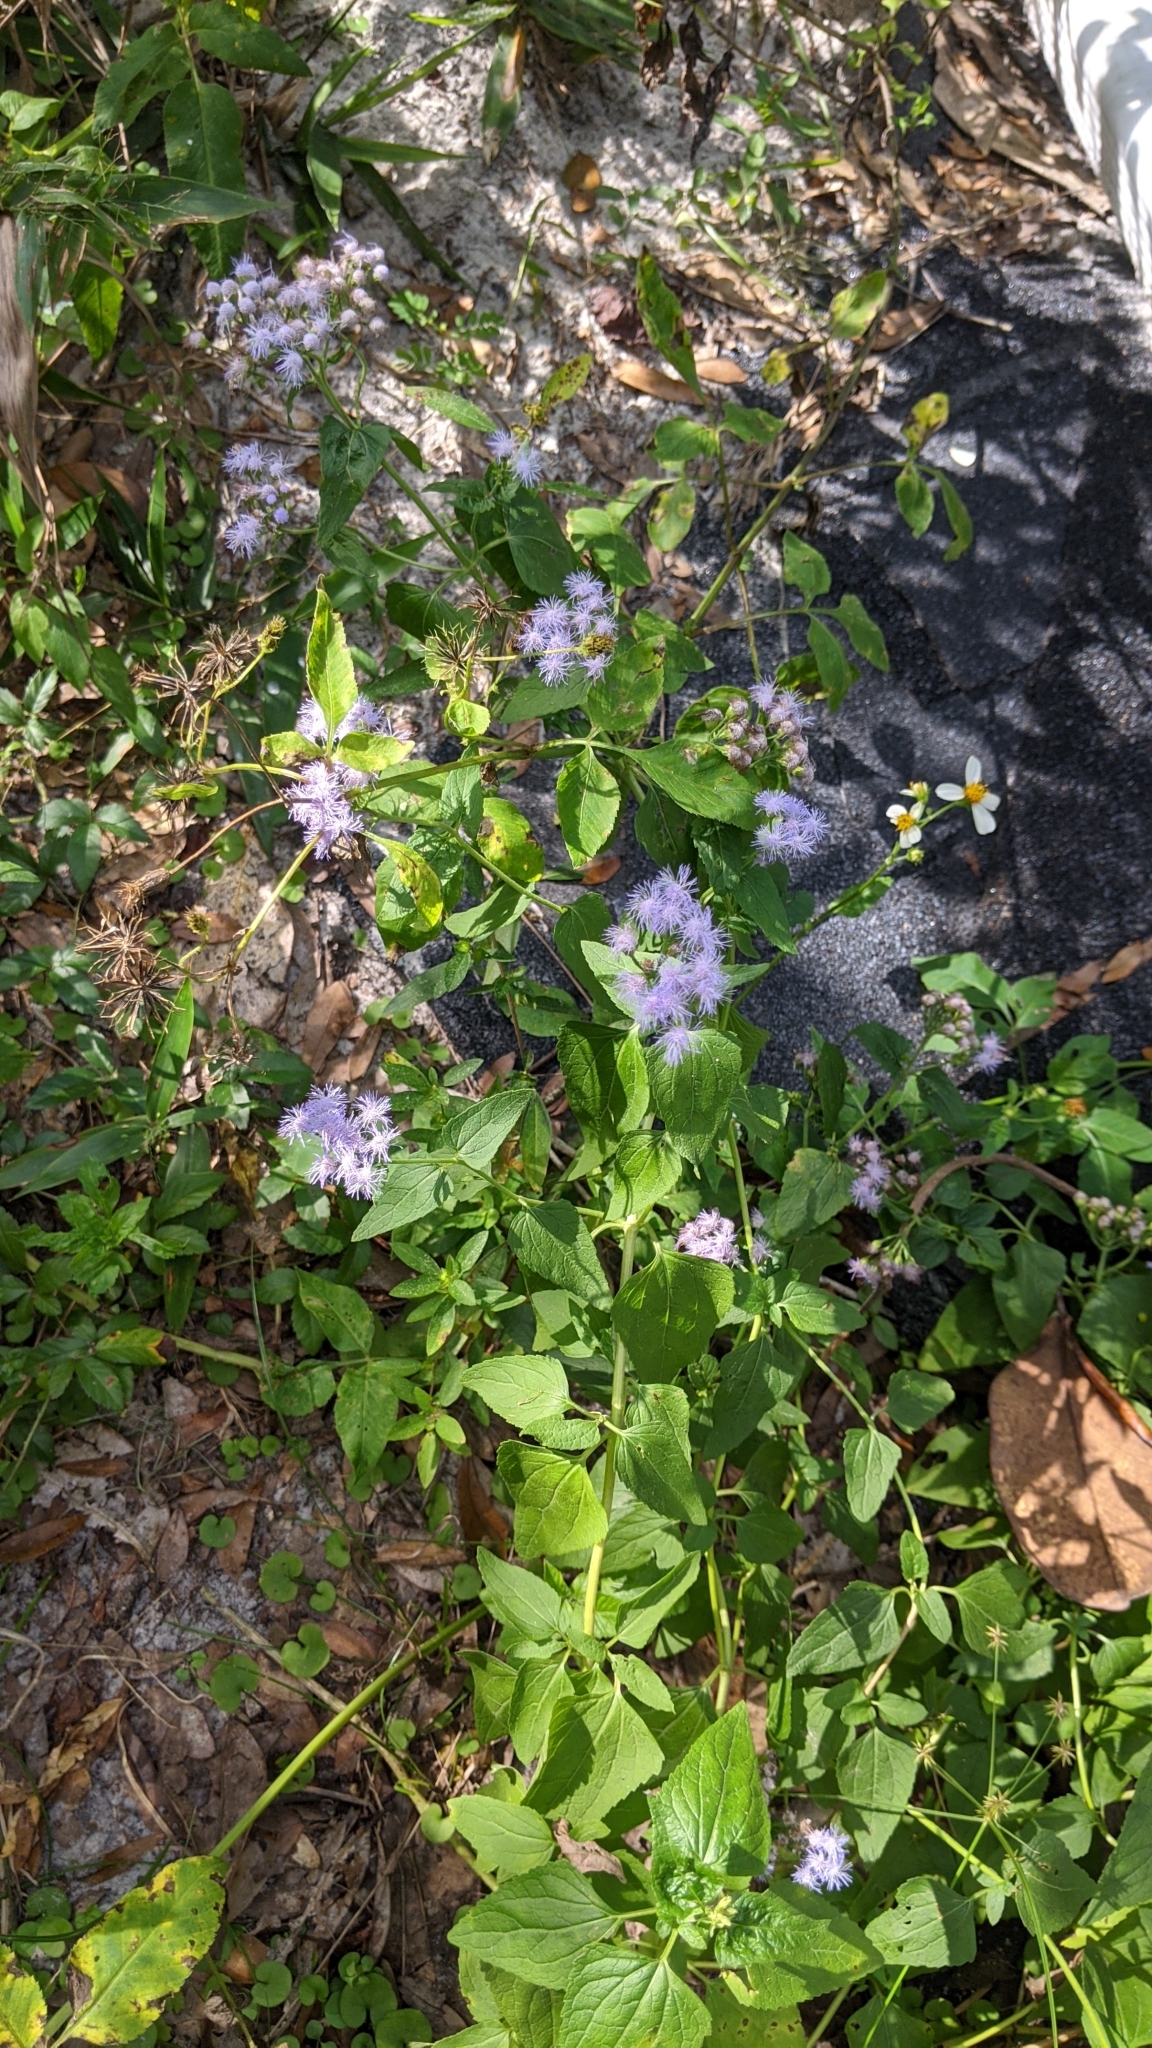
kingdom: Plantae
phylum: Tracheophyta
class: Magnoliopsida
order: Asterales
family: Asteraceae
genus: Conoclinium
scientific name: Conoclinium coelestinum
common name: Blue mistflower
